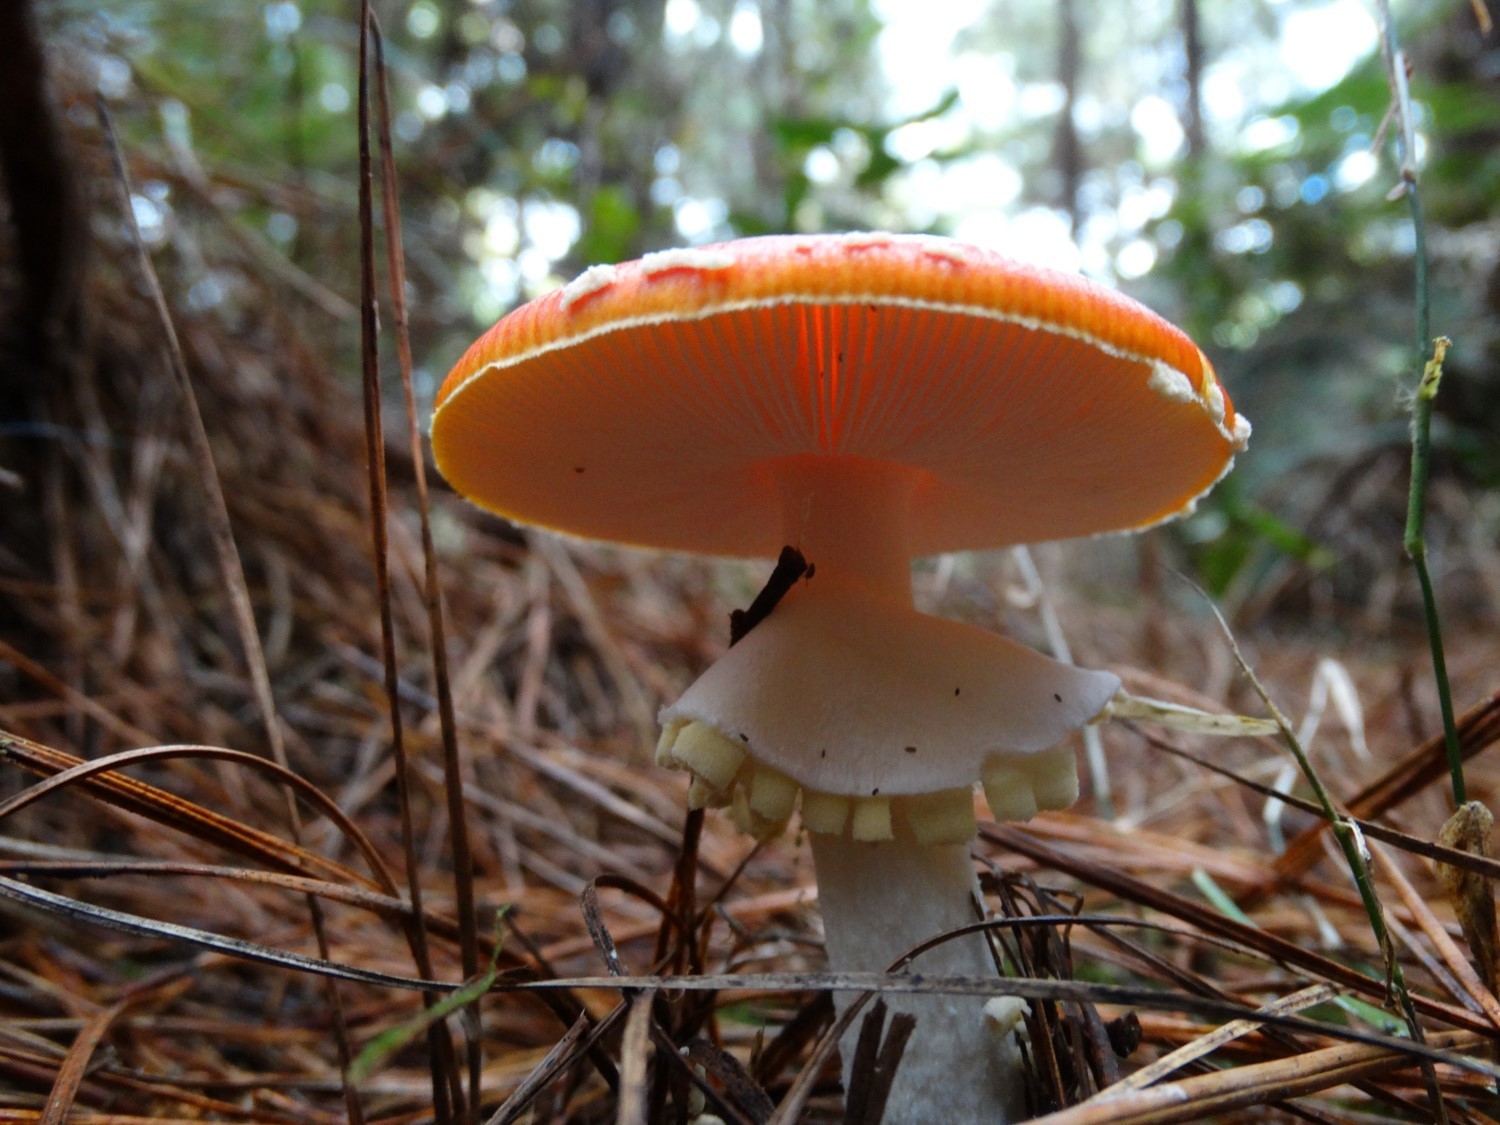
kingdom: Fungi
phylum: Basidiomycota
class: Agaricomycetes
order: Agaricales
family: Amanitaceae
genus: Amanita
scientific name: Amanita muscaria
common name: Fly agaric
